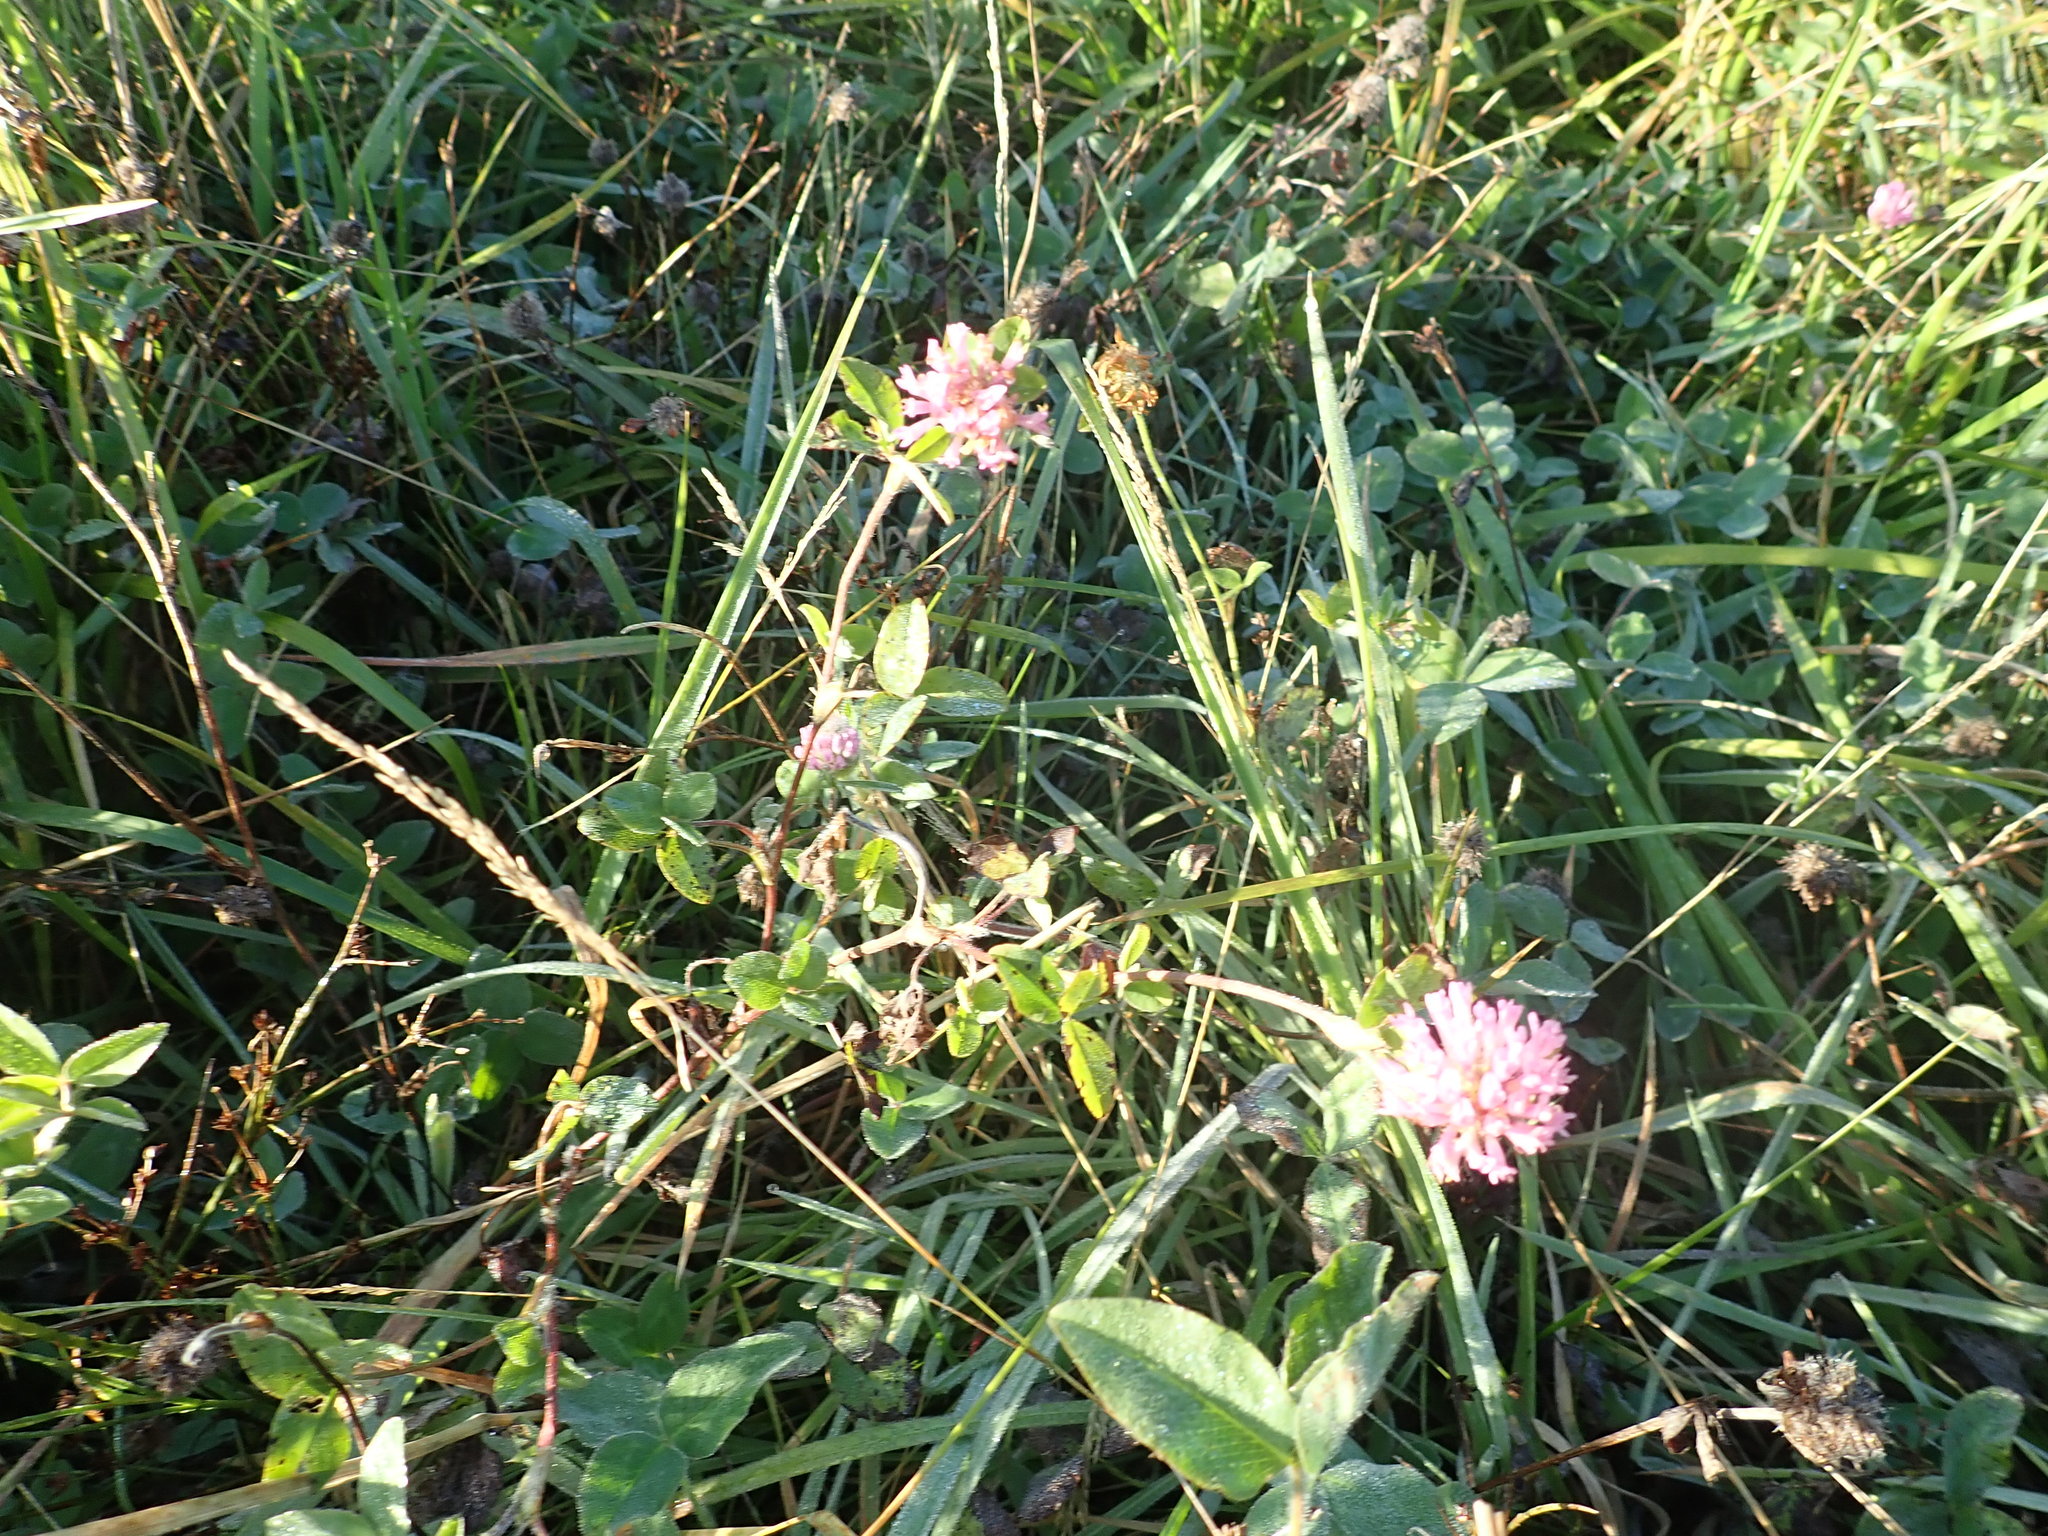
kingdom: Plantae
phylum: Tracheophyta
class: Magnoliopsida
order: Fabales
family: Fabaceae
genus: Trifolium
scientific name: Trifolium pratense
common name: Red clover
